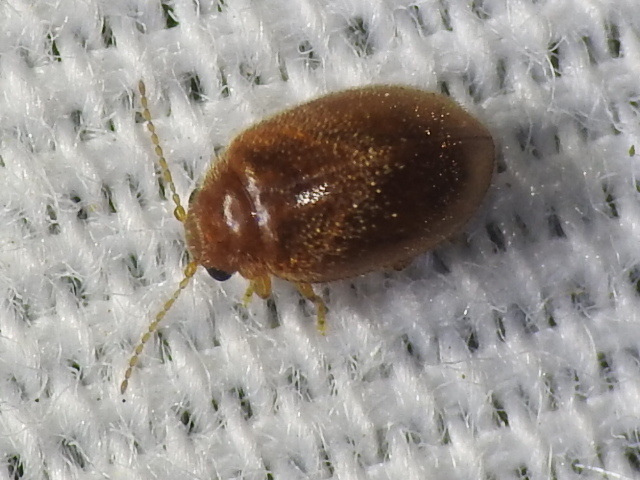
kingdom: Animalia
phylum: Arthropoda
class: Insecta
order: Coleoptera
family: Scirtidae
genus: Contacyphon
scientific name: Contacyphon
